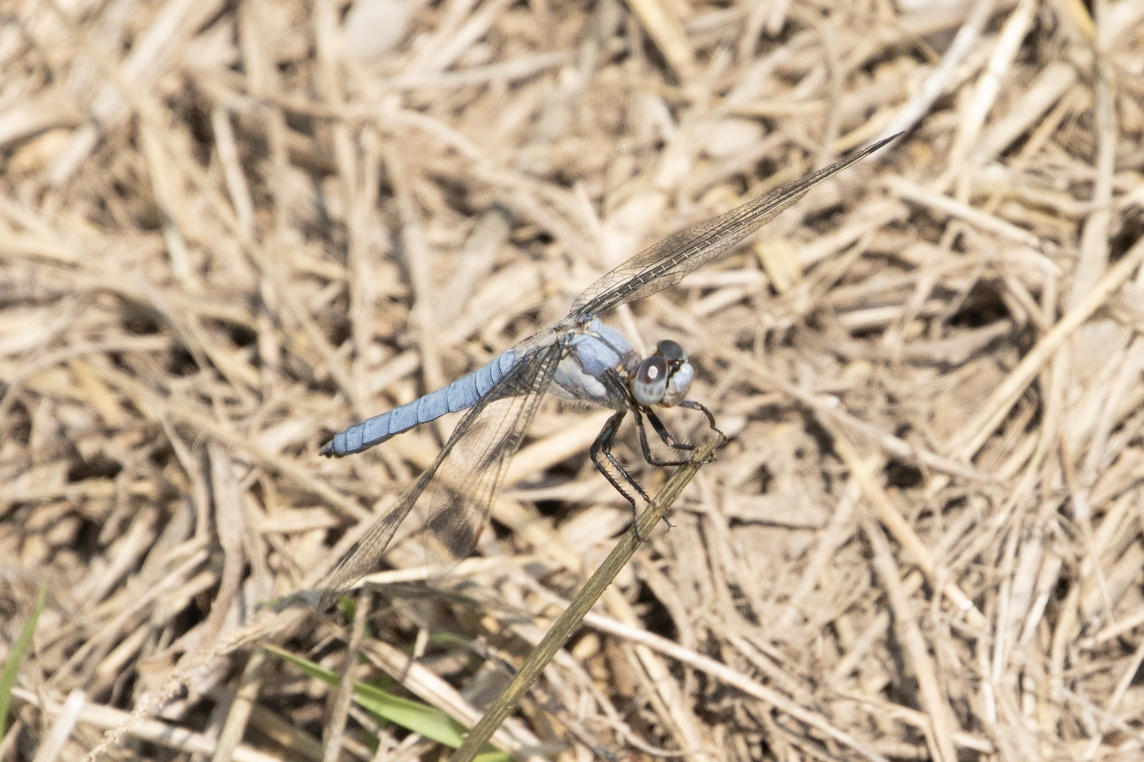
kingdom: Animalia
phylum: Arthropoda
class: Insecta
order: Odonata
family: Libellulidae
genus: Orthetrum
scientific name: Orthetrum brunneum
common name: Southern skimmer
